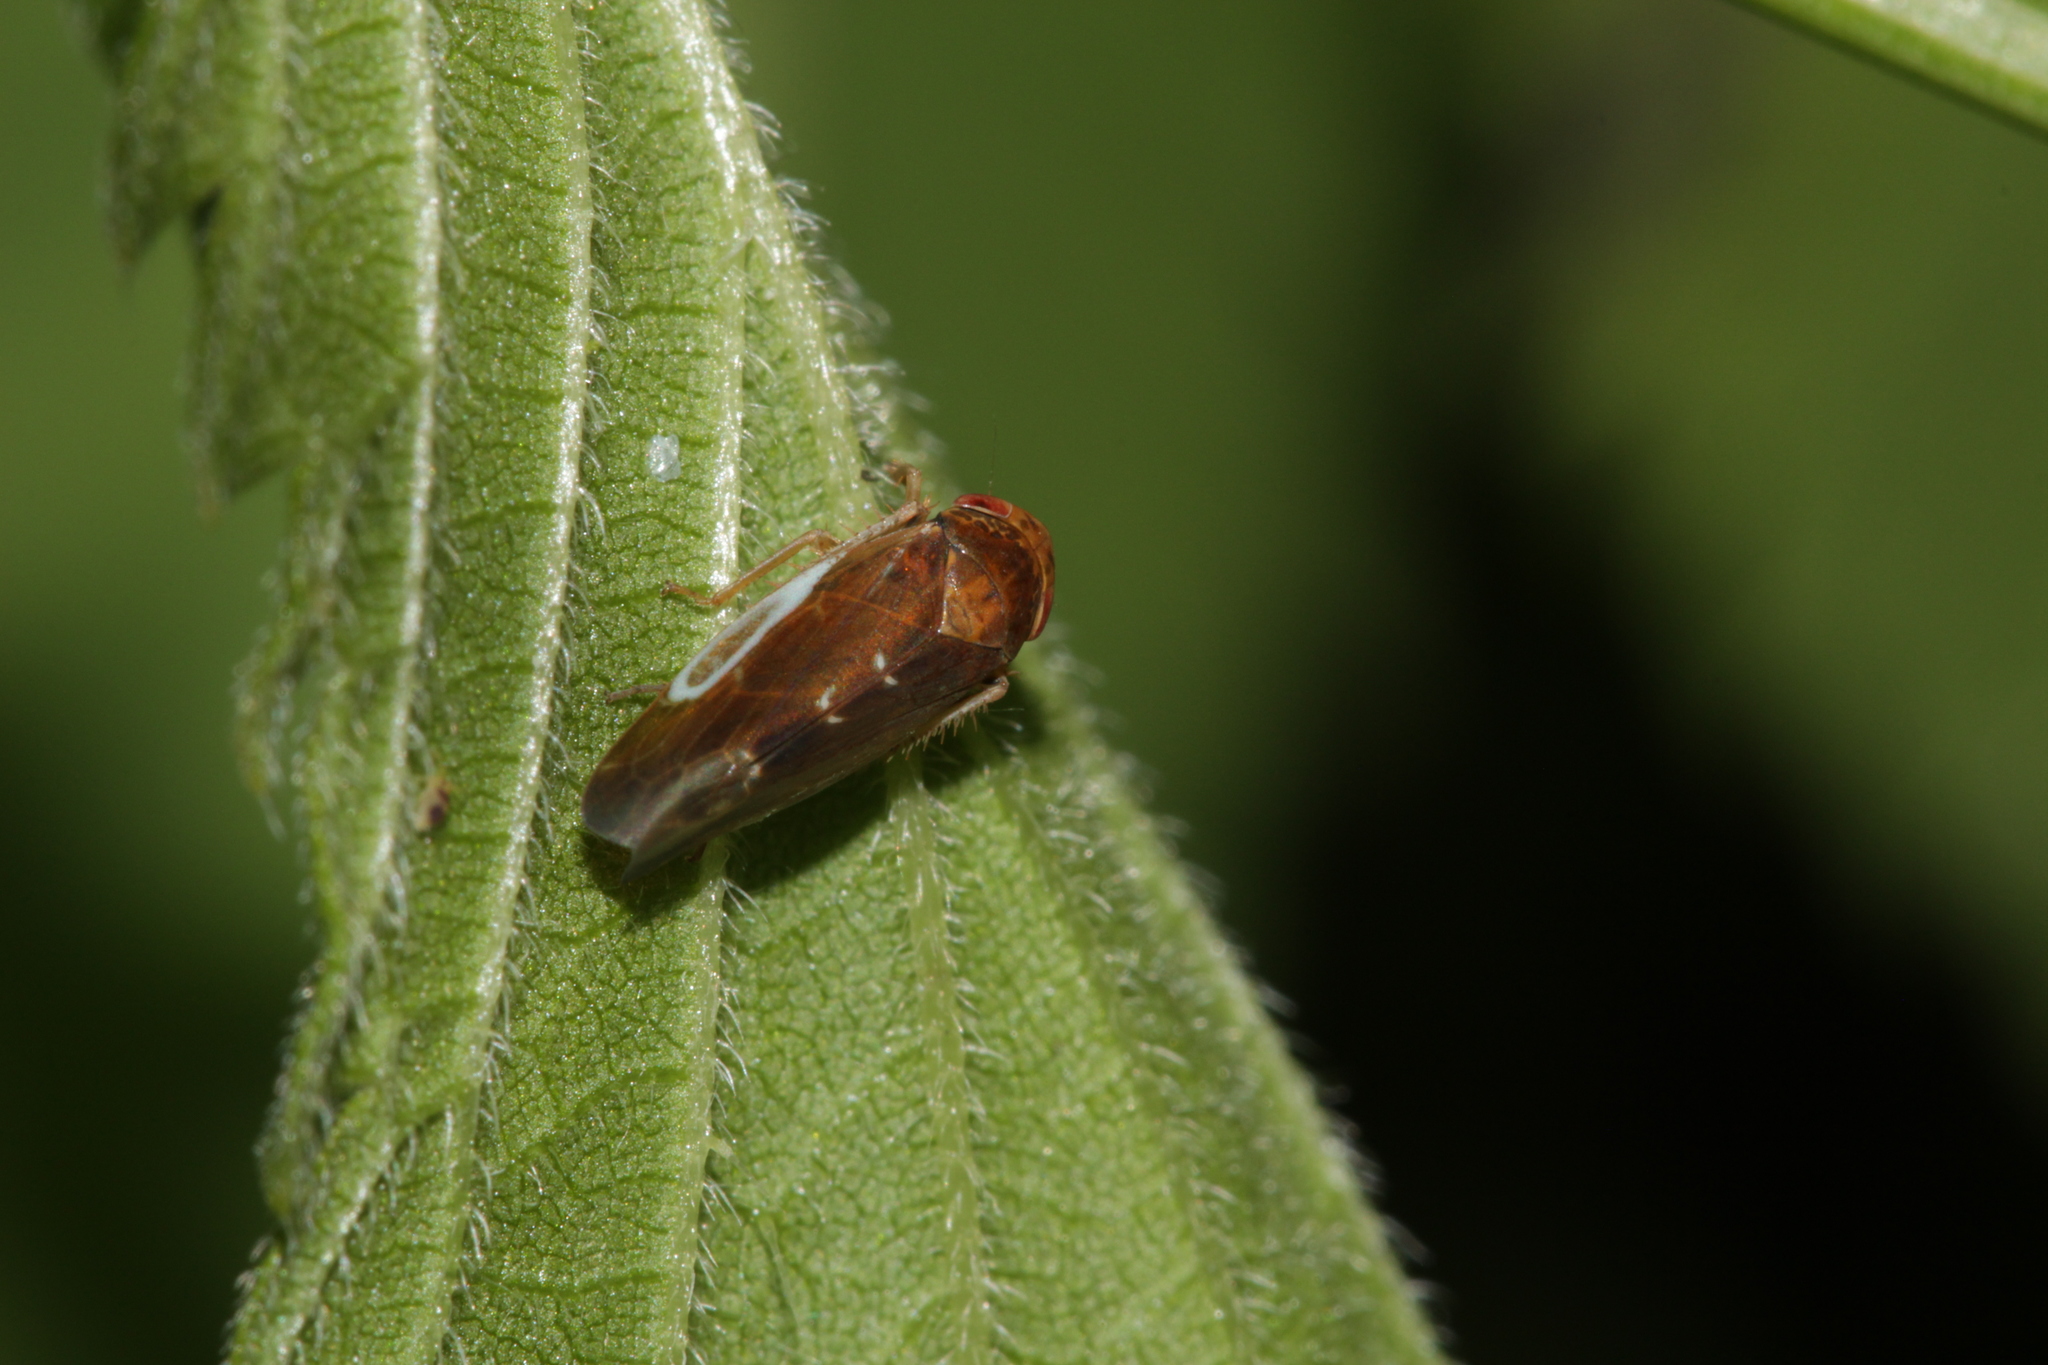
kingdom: Animalia
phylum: Arthropoda
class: Insecta
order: Hemiptera
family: Cicadellidae
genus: Hesium
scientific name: Hesium domino
